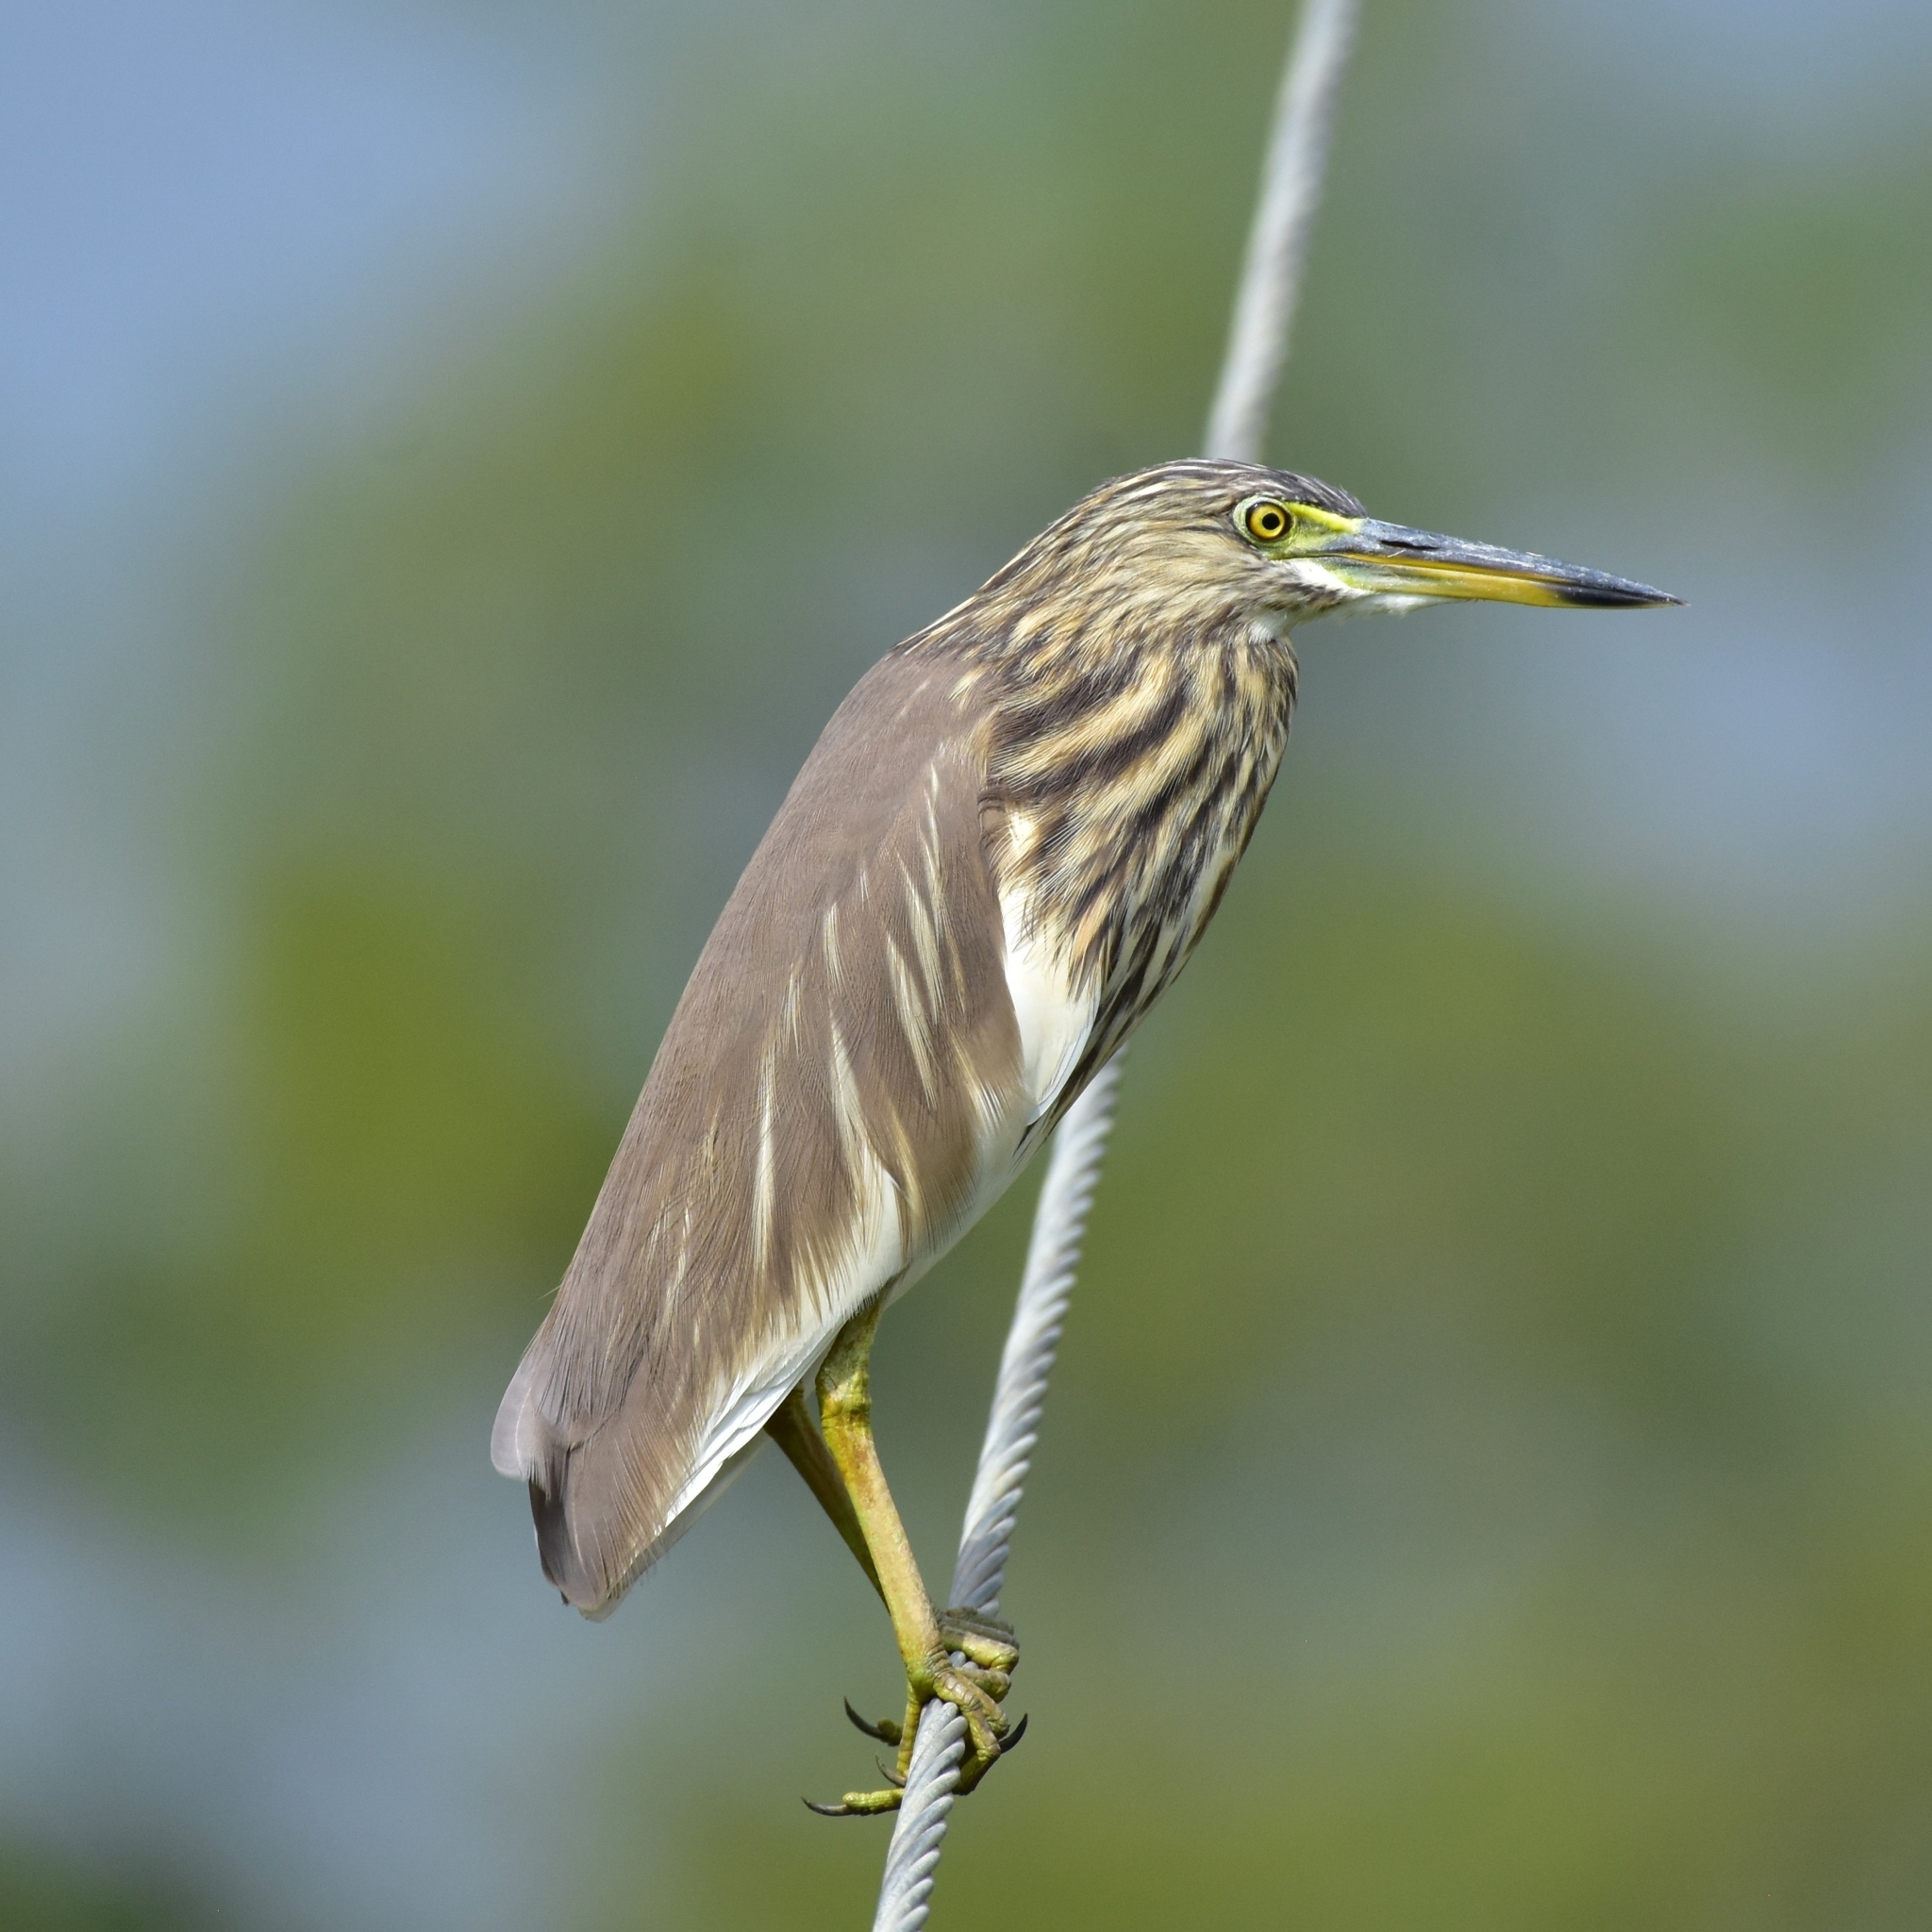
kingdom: Animalia
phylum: Chordata
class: Aves
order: Pelecaniformes
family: Ardeidae
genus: Ardeola
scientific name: Ardeola grayii
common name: Indian pond heron
